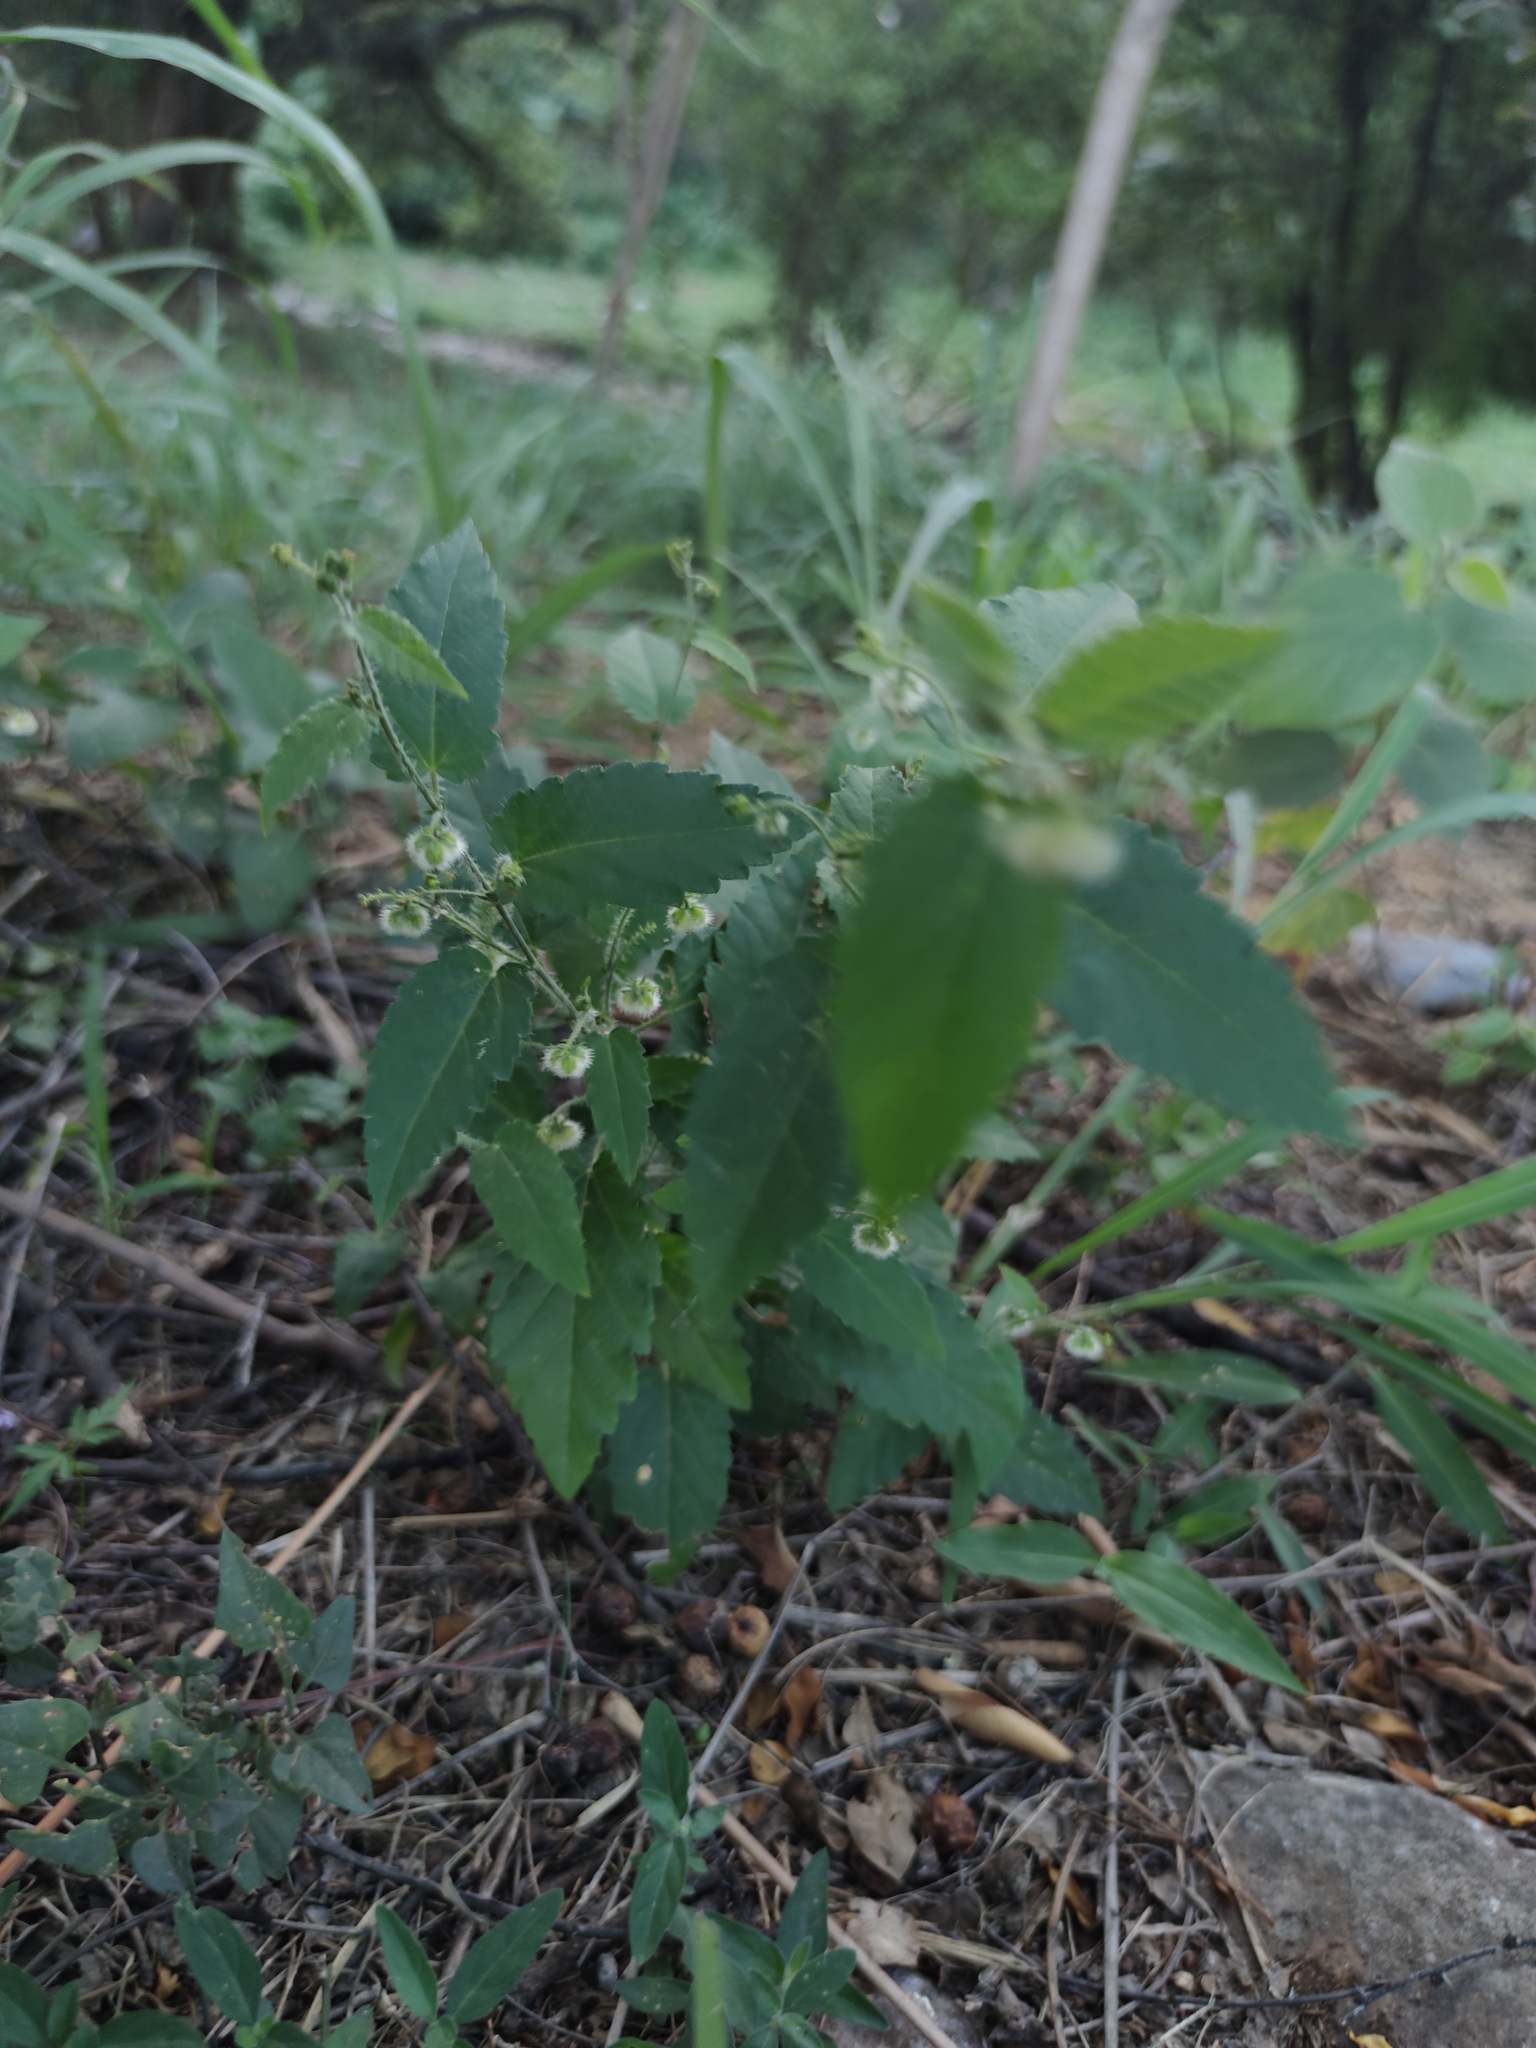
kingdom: Plantae
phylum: Tracheophyta
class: Magnoliopsida
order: Malpighiales
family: Euphorbiaceae
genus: Tragia
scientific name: Tragia urticifolia
